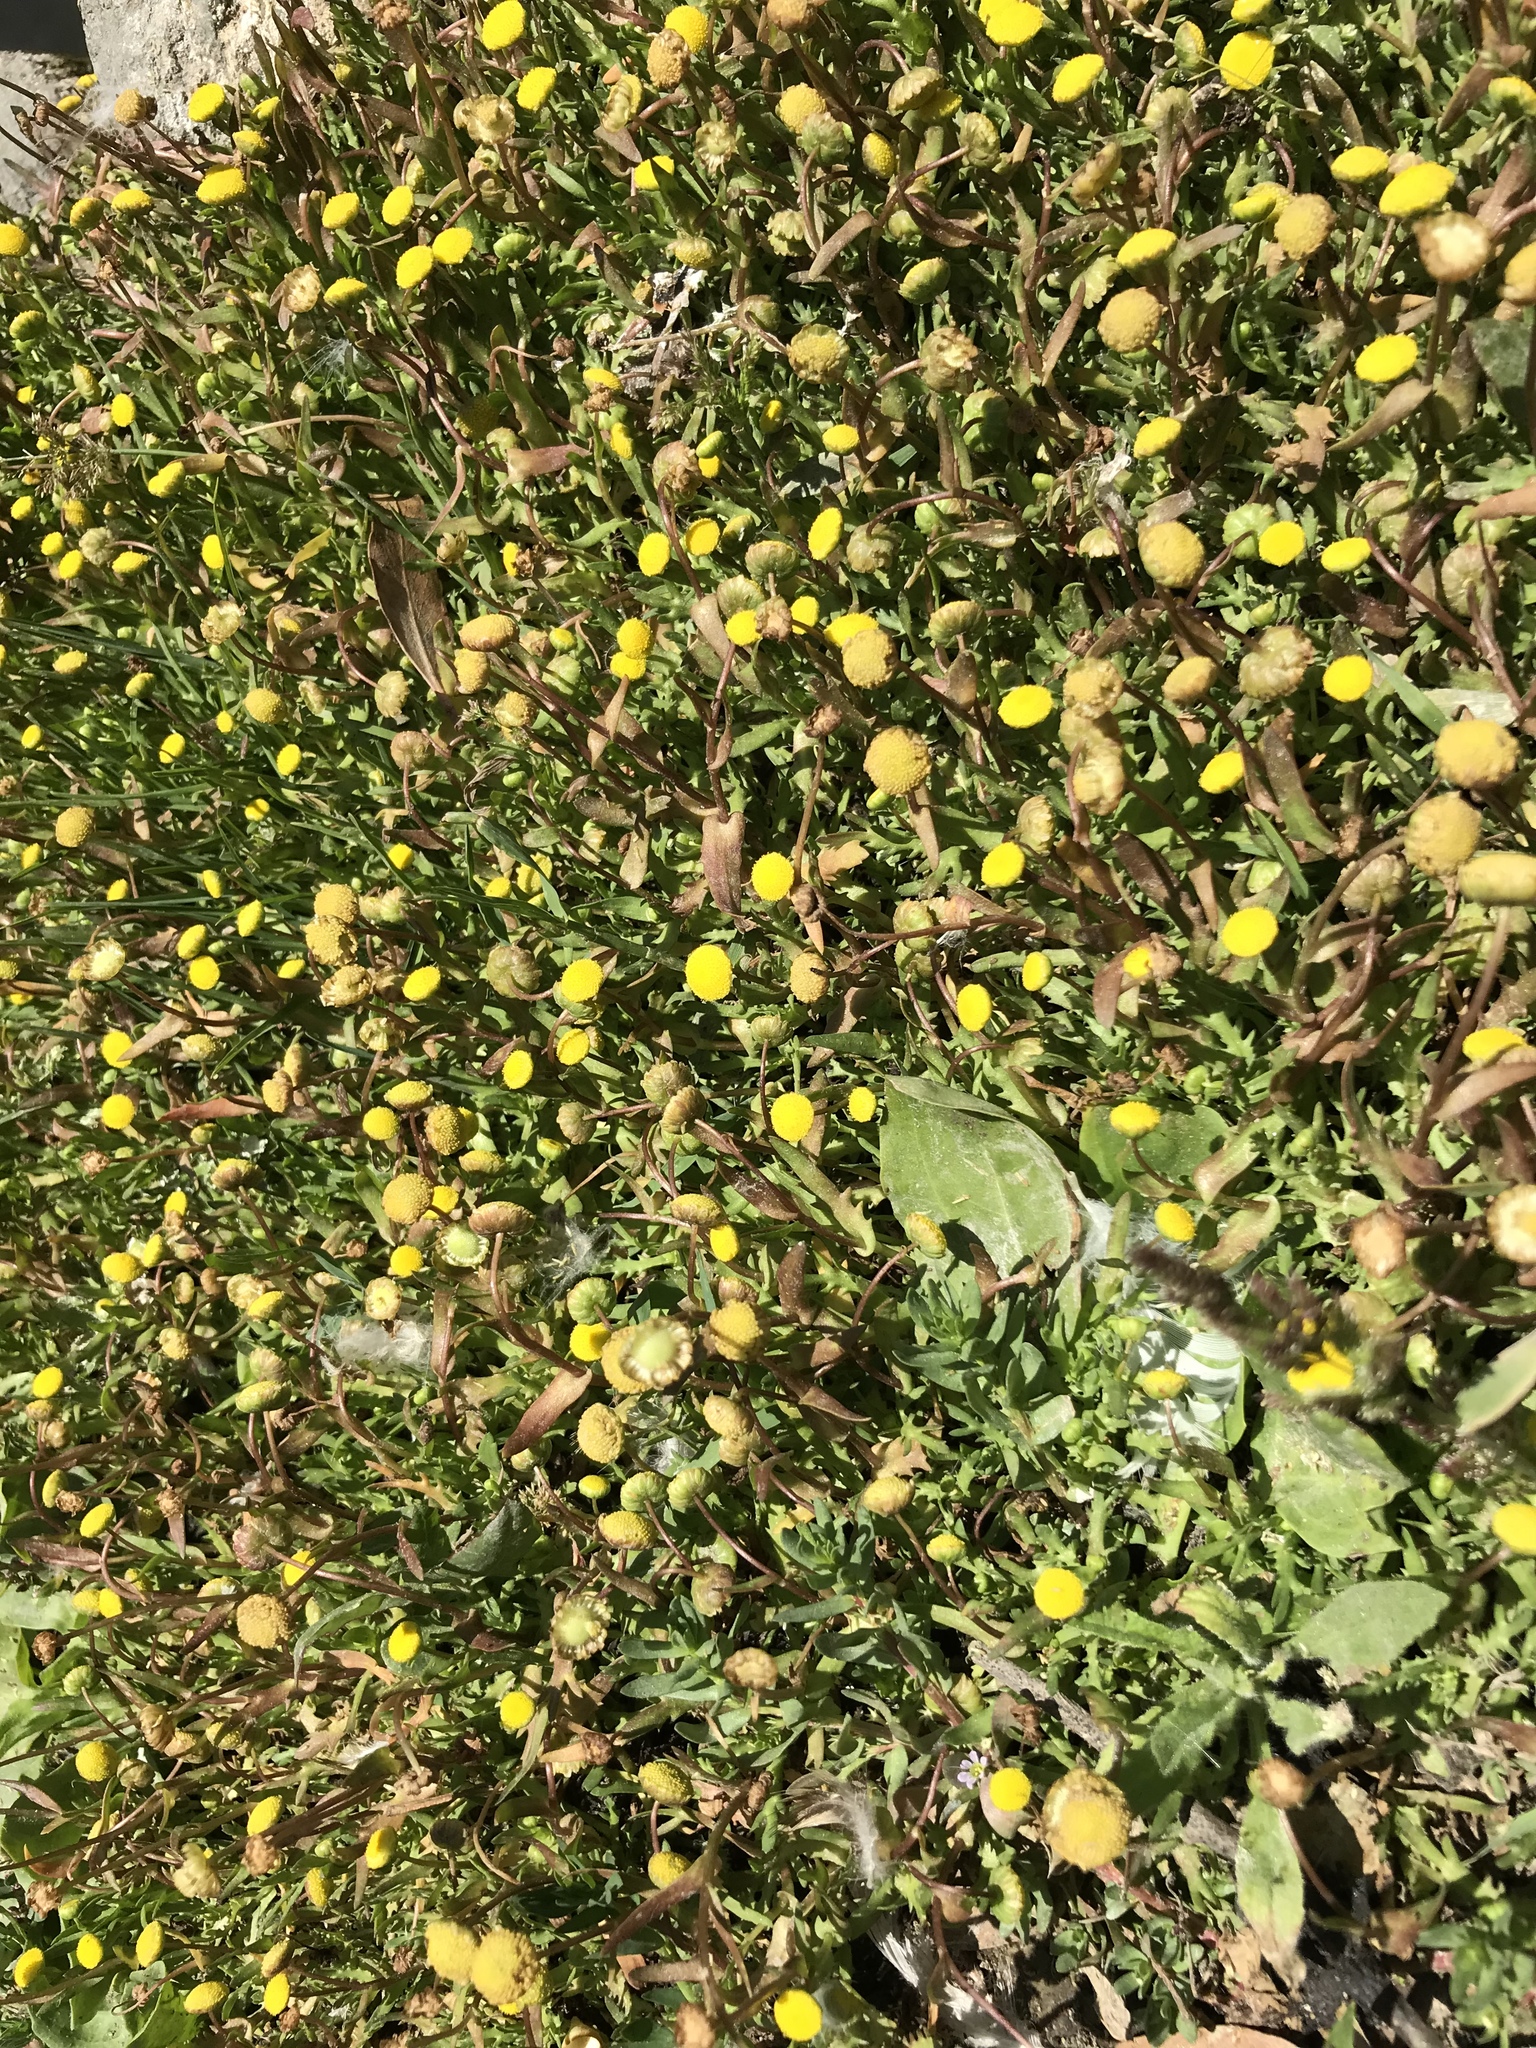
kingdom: Plantae
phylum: Tracheophyta
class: Magnoliopsida
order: Asterales
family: Asteraceae
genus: Cotula
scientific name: Cotula coronopifolia
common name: Buttonweed
